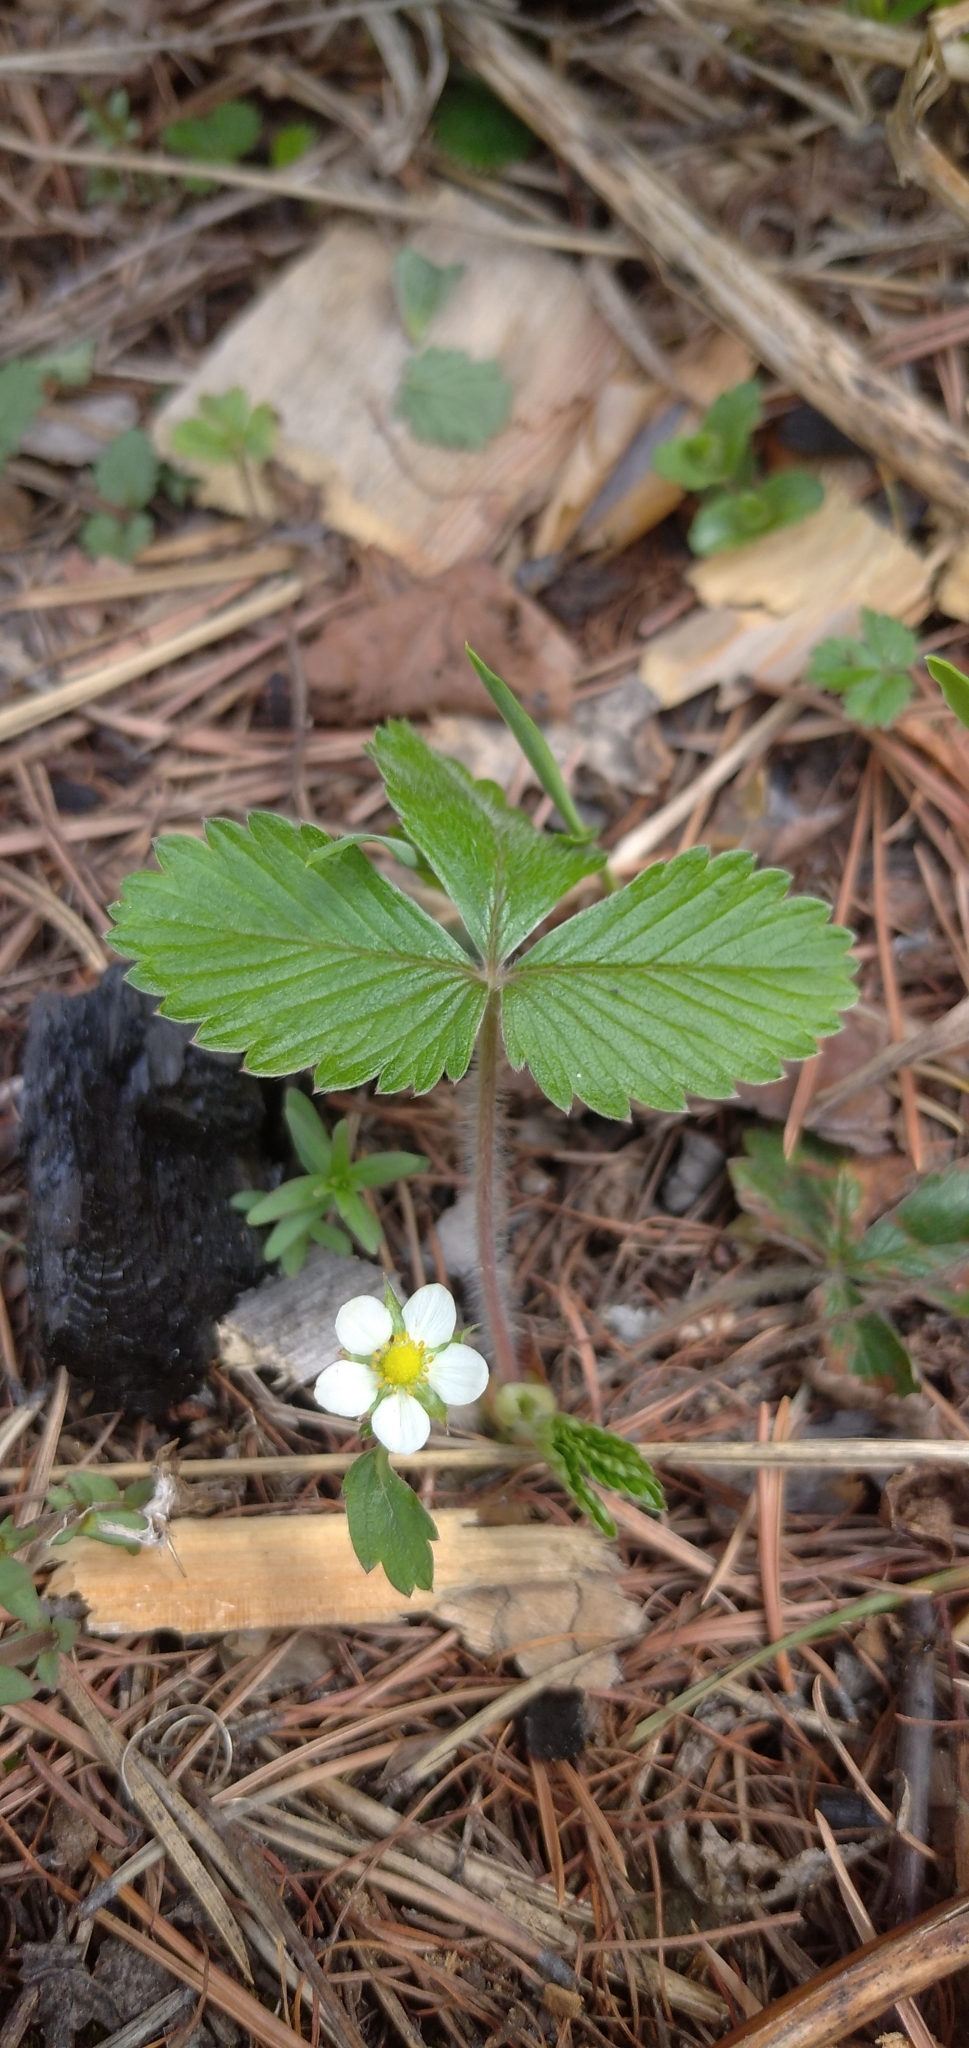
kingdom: Plantae
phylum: Tracheophyta
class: Magnoliopsida
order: Rosales
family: Rosaceae
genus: Fragaria
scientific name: Fragaria vesca
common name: Wild strawberry
